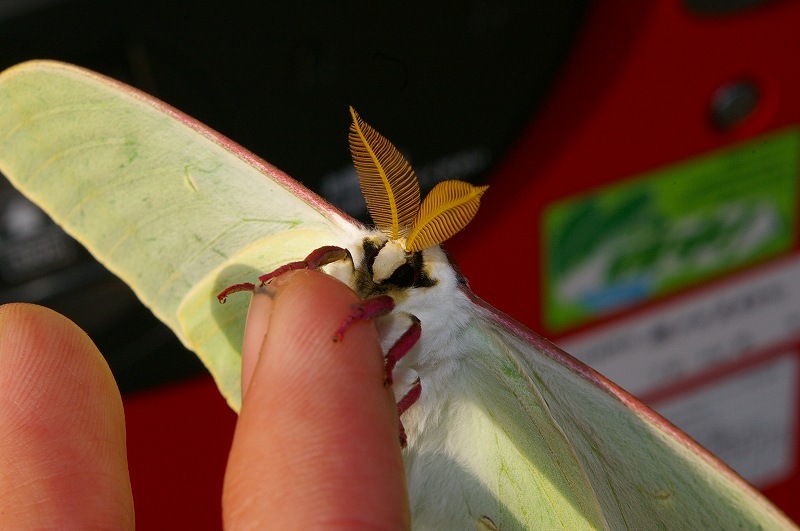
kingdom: Animalia
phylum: Arthropoda
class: Insecta
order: Lepidoptera
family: Saturniidae
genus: Actias
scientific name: Actias aliena
